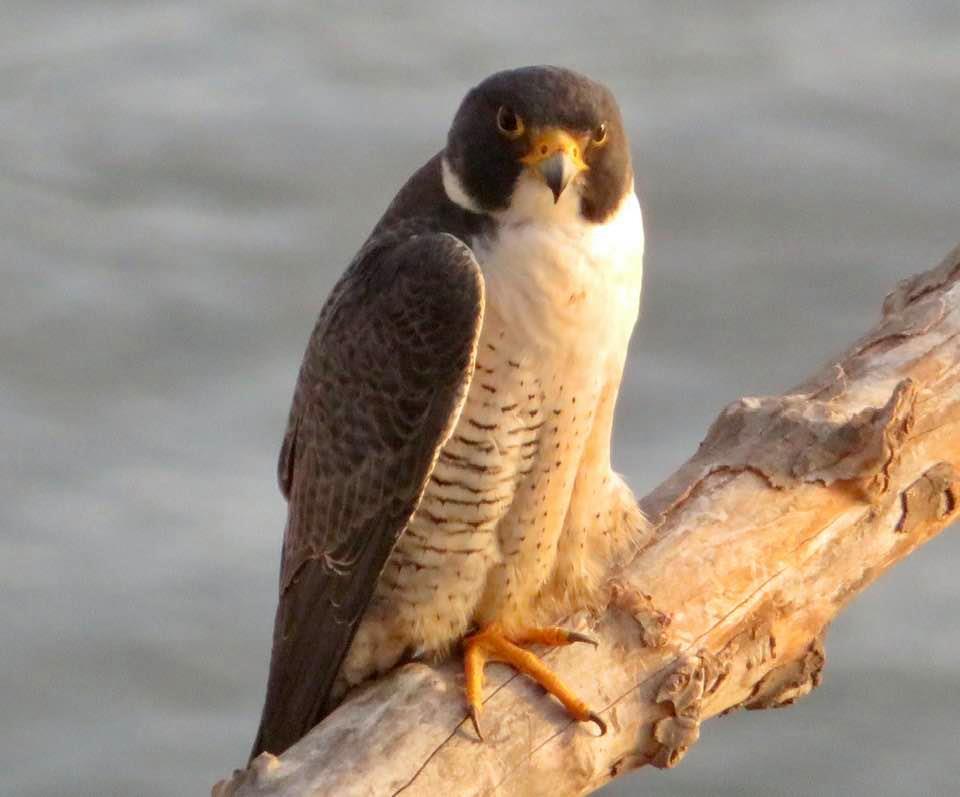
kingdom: Animalia
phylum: Chordata
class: Aves
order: Falconiformes
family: Falconidae
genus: Falco
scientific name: Falco peregrinus
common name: Peregrine falcon
